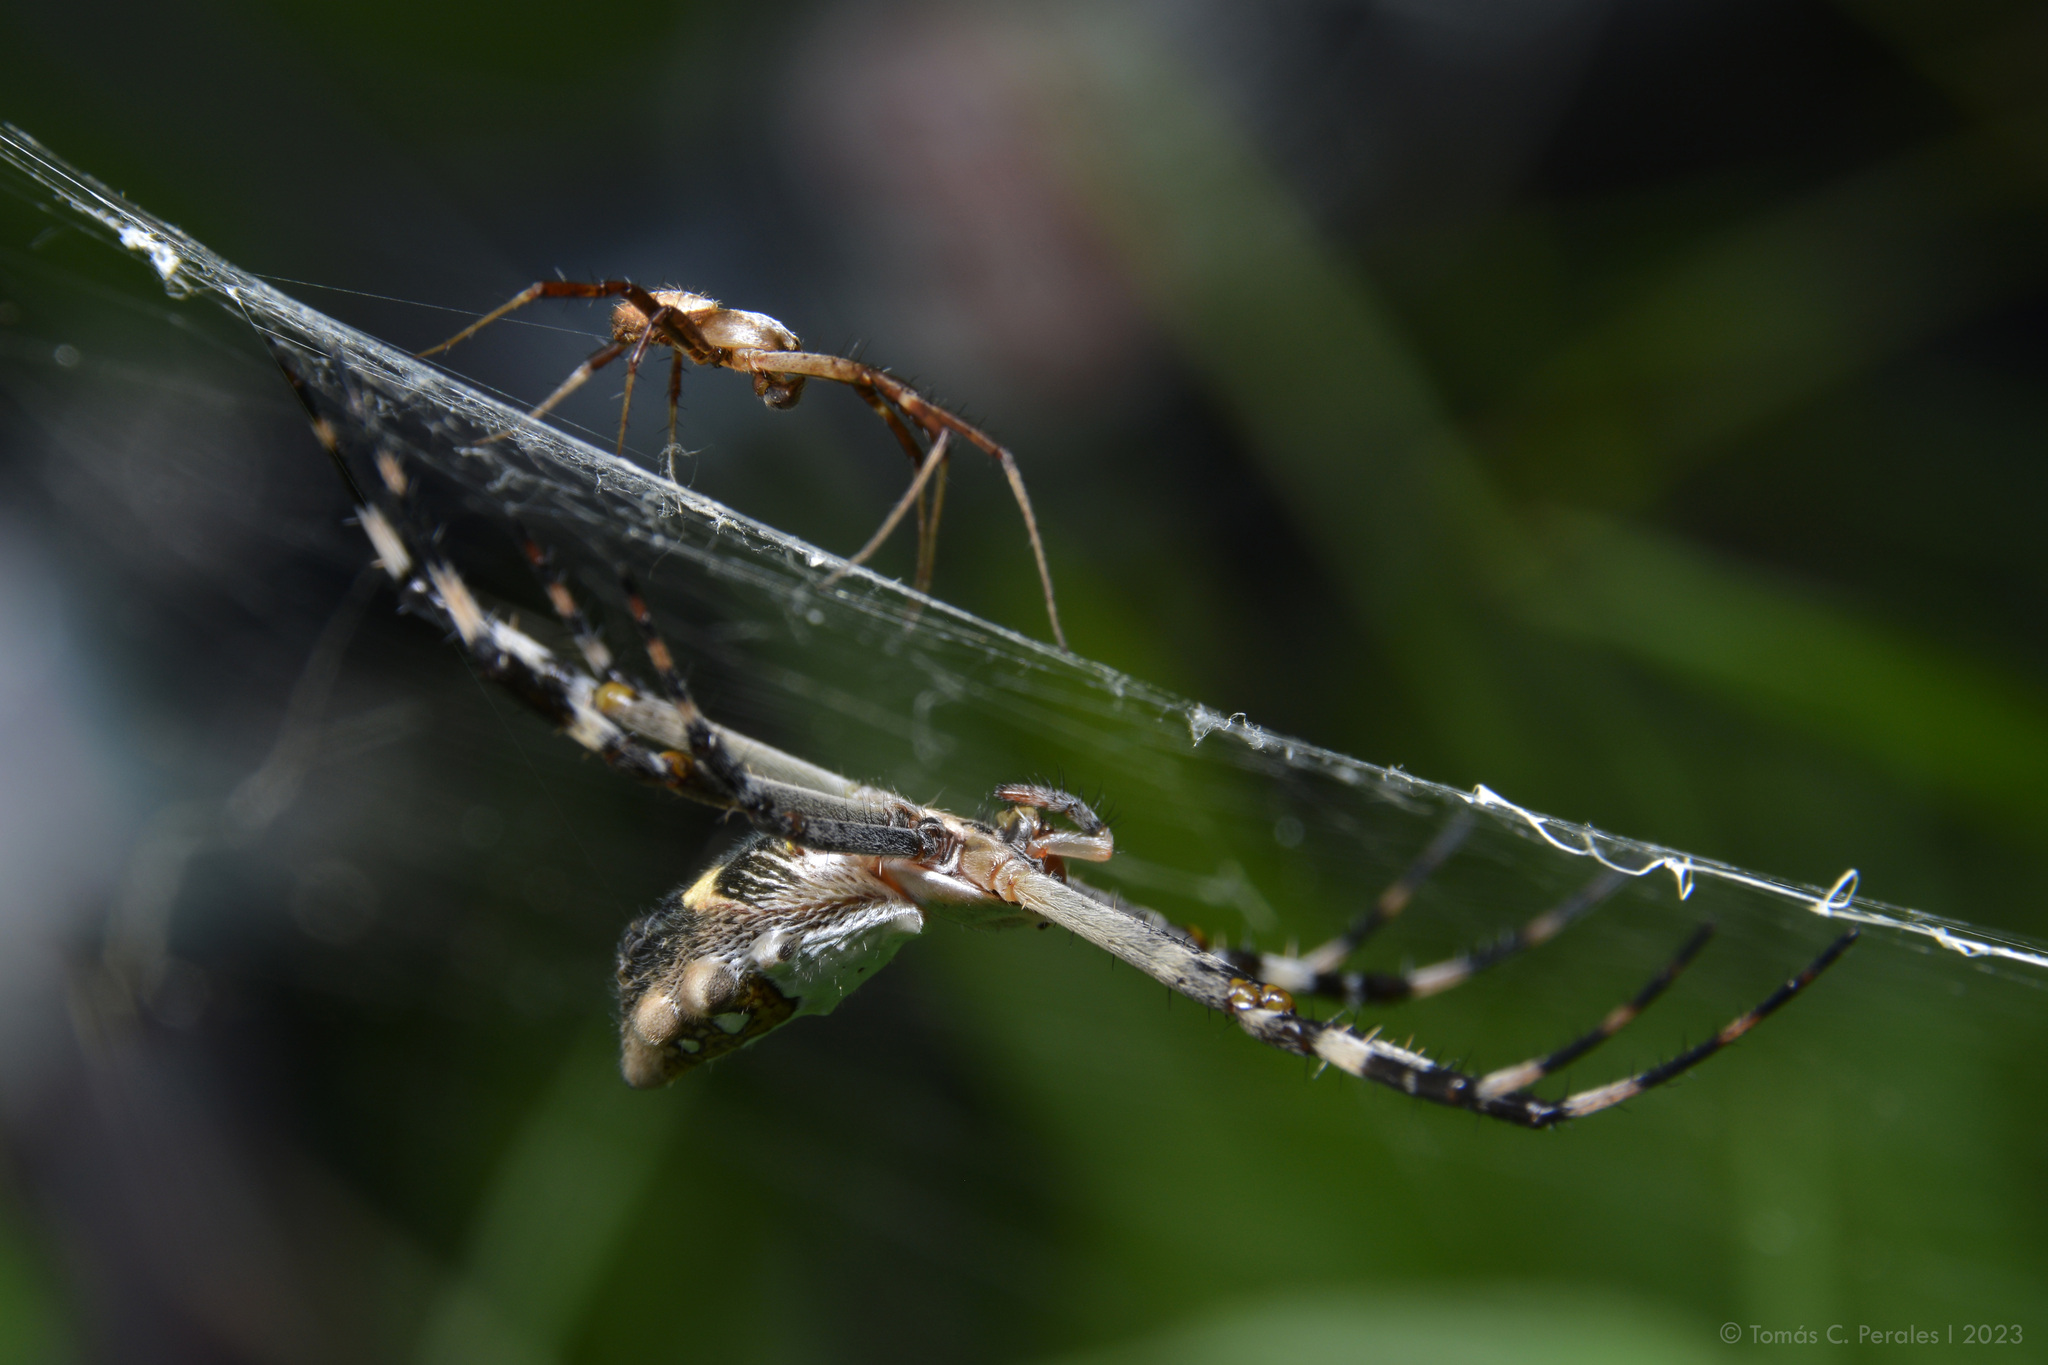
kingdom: Animalia
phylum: Arthropoda
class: Arachnida
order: Araneae
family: Araneidae
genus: Argiope
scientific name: Argiope argentata
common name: Orb weavers
